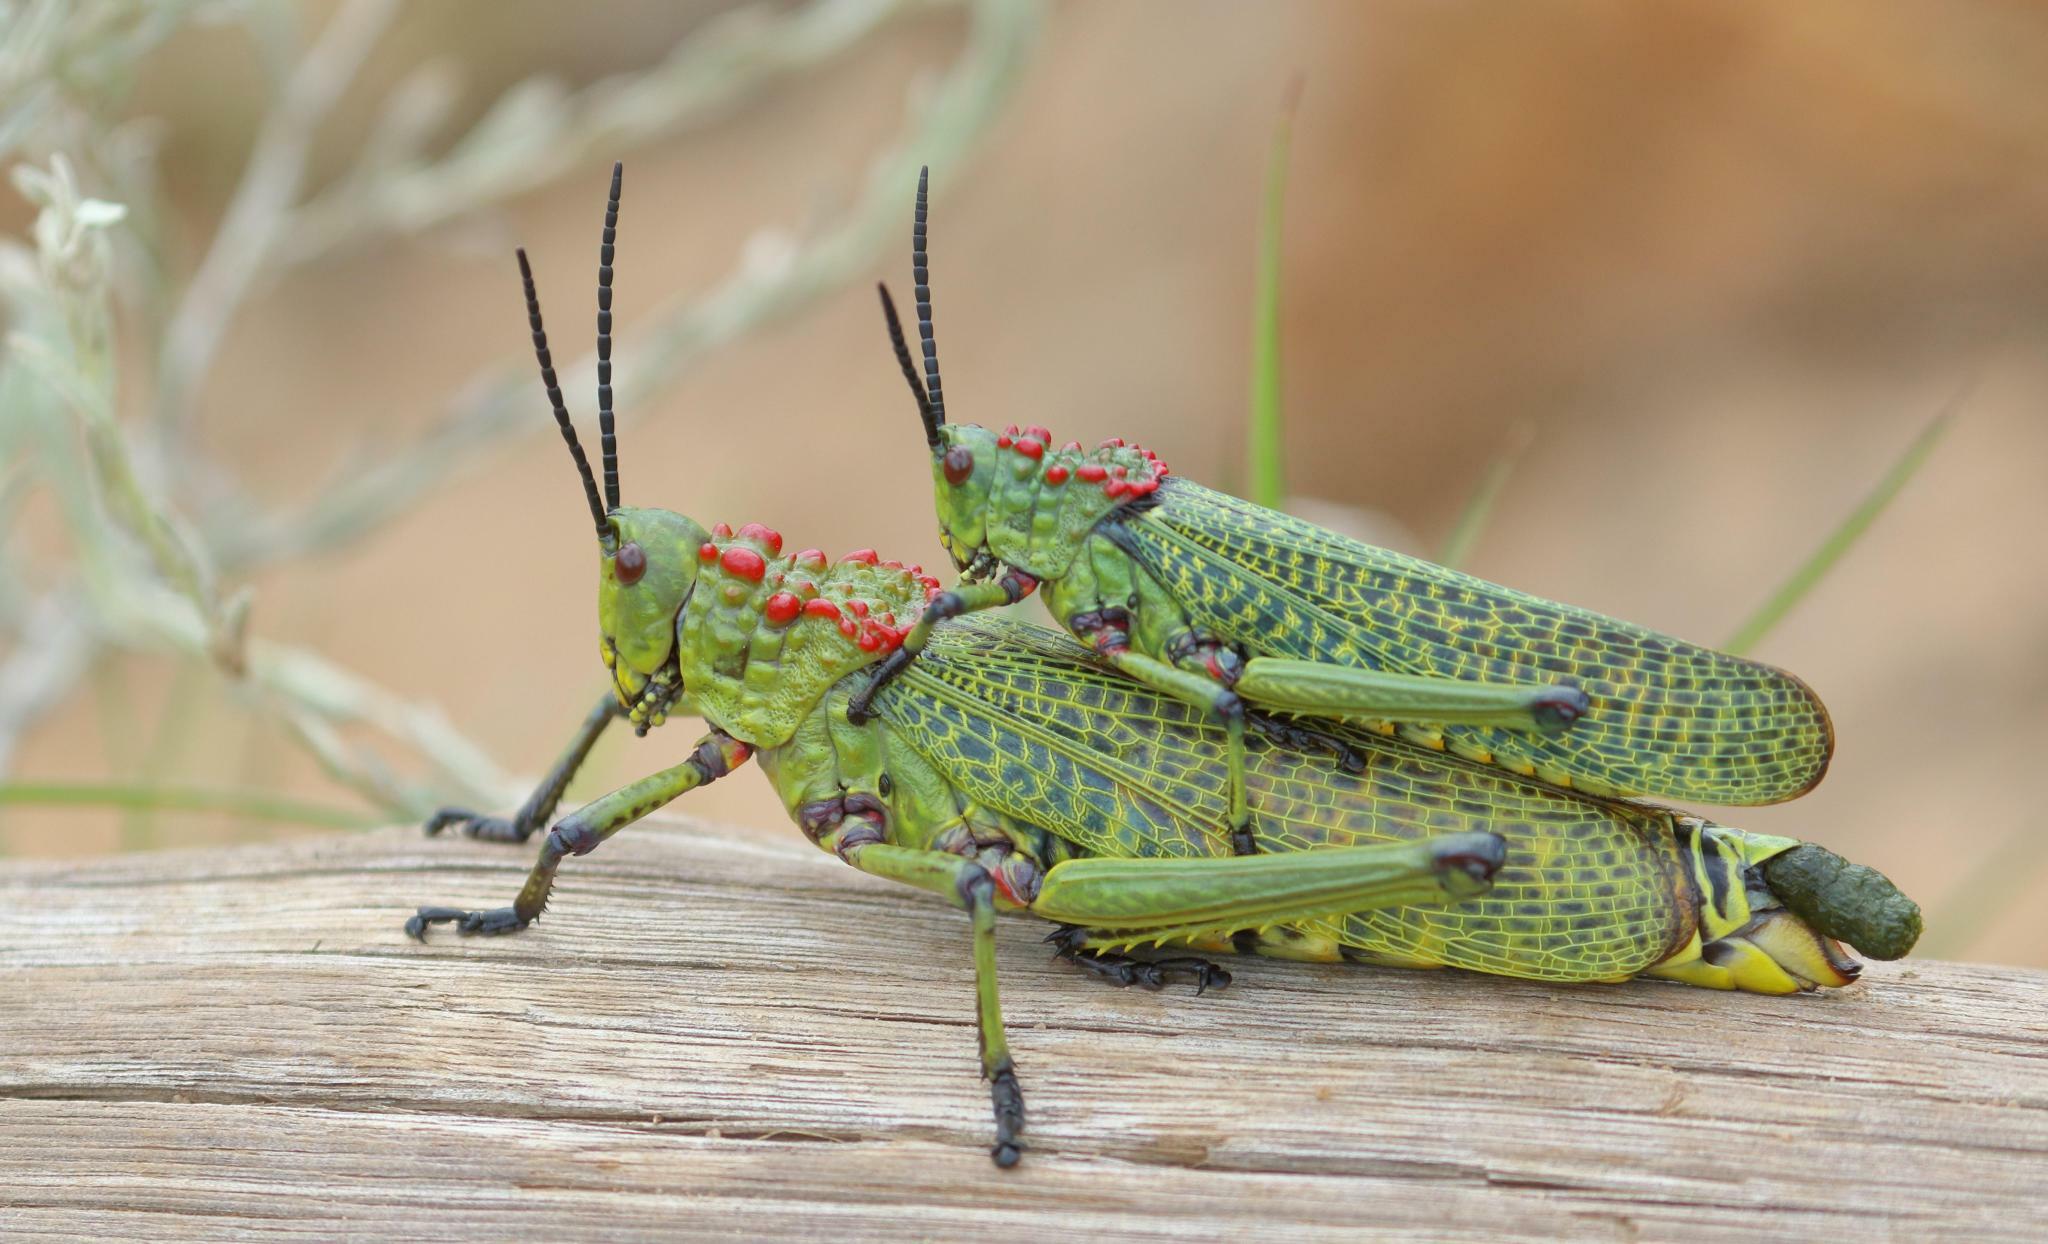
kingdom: Animalia
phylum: Arthropoda
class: Insecta
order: Orthoptera
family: Pyrgomorphidae
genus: Phymateus
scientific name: Phymateus viridipes
